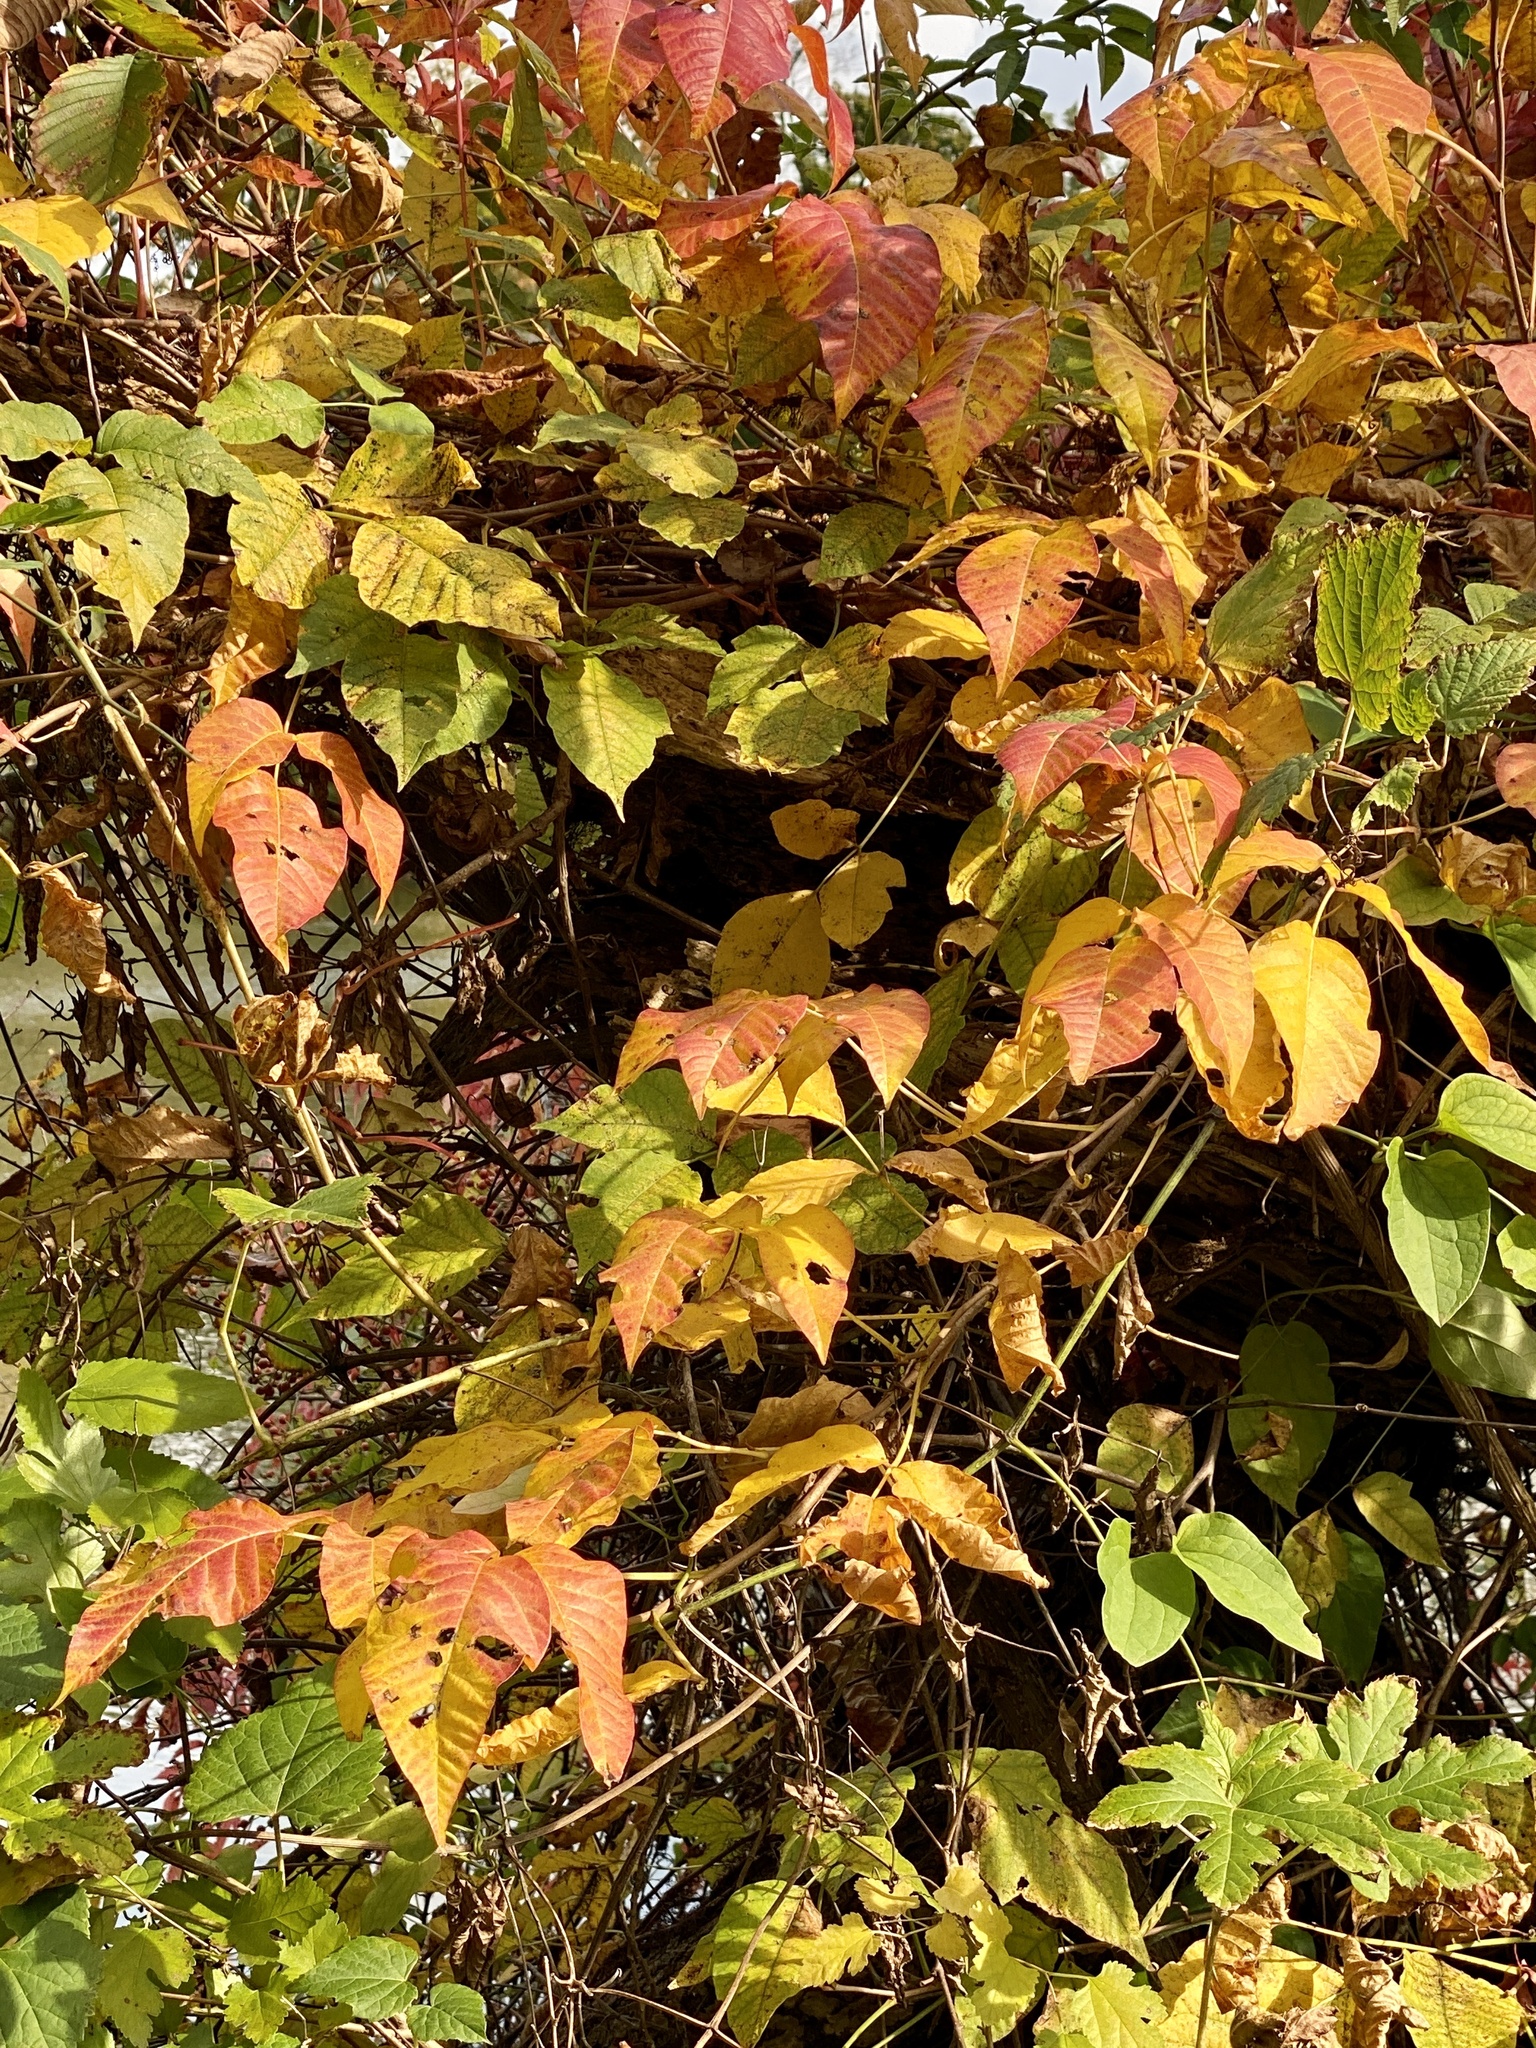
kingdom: Plantae
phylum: Tracheophyta
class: Magnoliopsida
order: Sapindales
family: Anacardiaceae
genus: Toxicodendron
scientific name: Toxicodendron radicans
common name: Poison ivy
